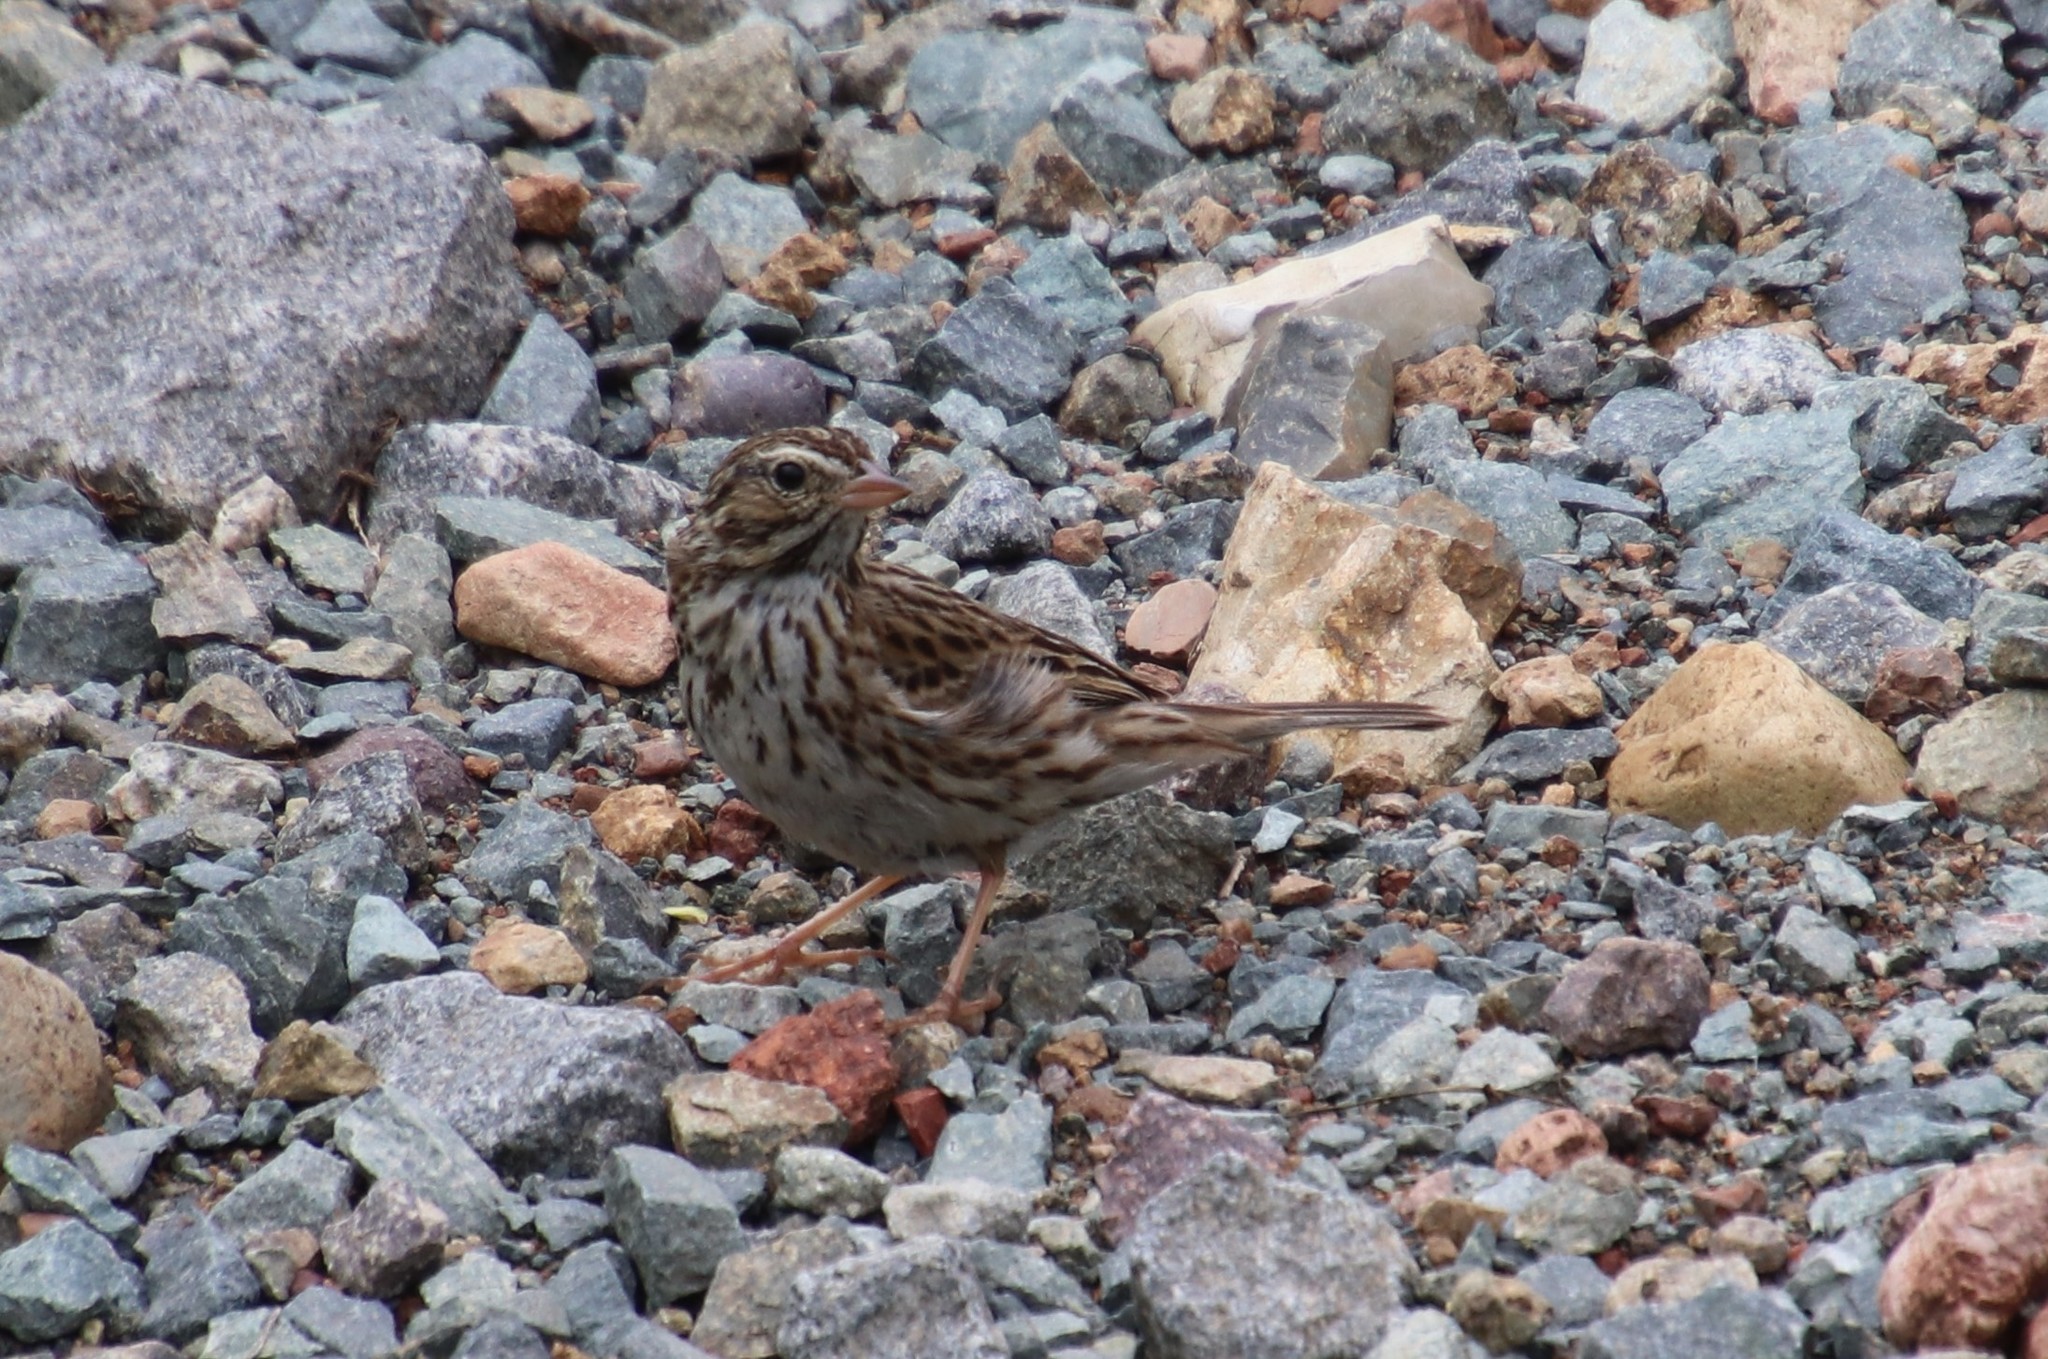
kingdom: Animalia
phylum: Chordata
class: Aves
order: Passeriformes
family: Passerellidae
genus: Passerculus
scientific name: Passerculus sandwichensis
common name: Savannah sparrow
